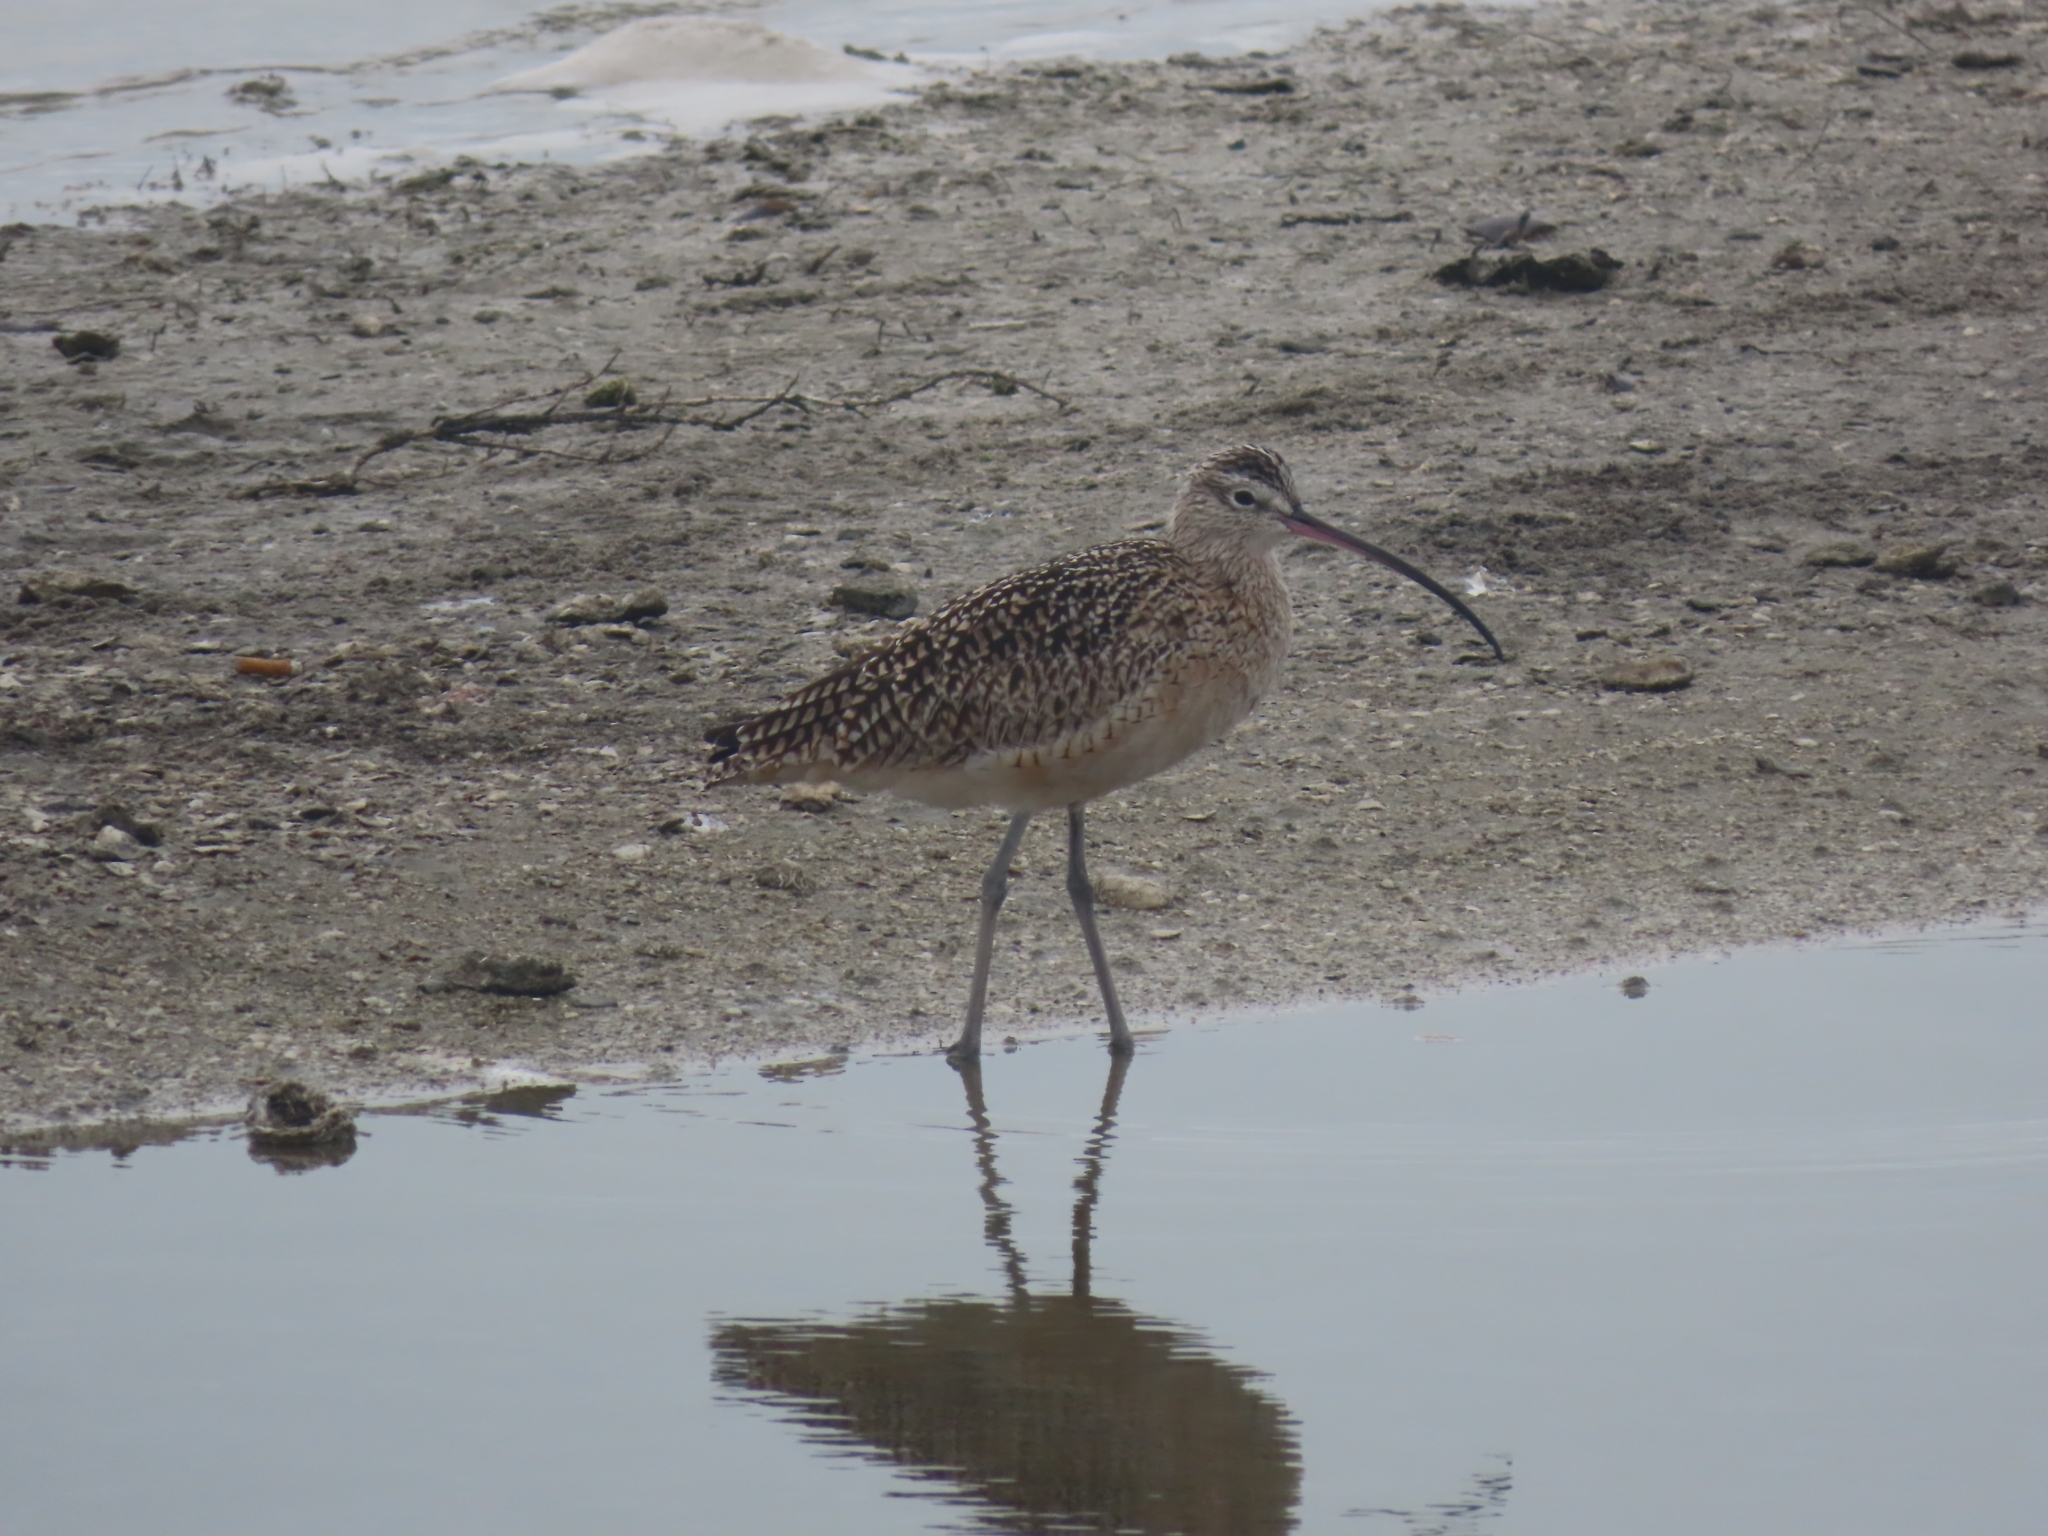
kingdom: Animalia
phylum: Chordata
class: Aves
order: Charadriiformes
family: Scolopacidae
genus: Numenius
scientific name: Numenius americanus
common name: Long-billed curlew
